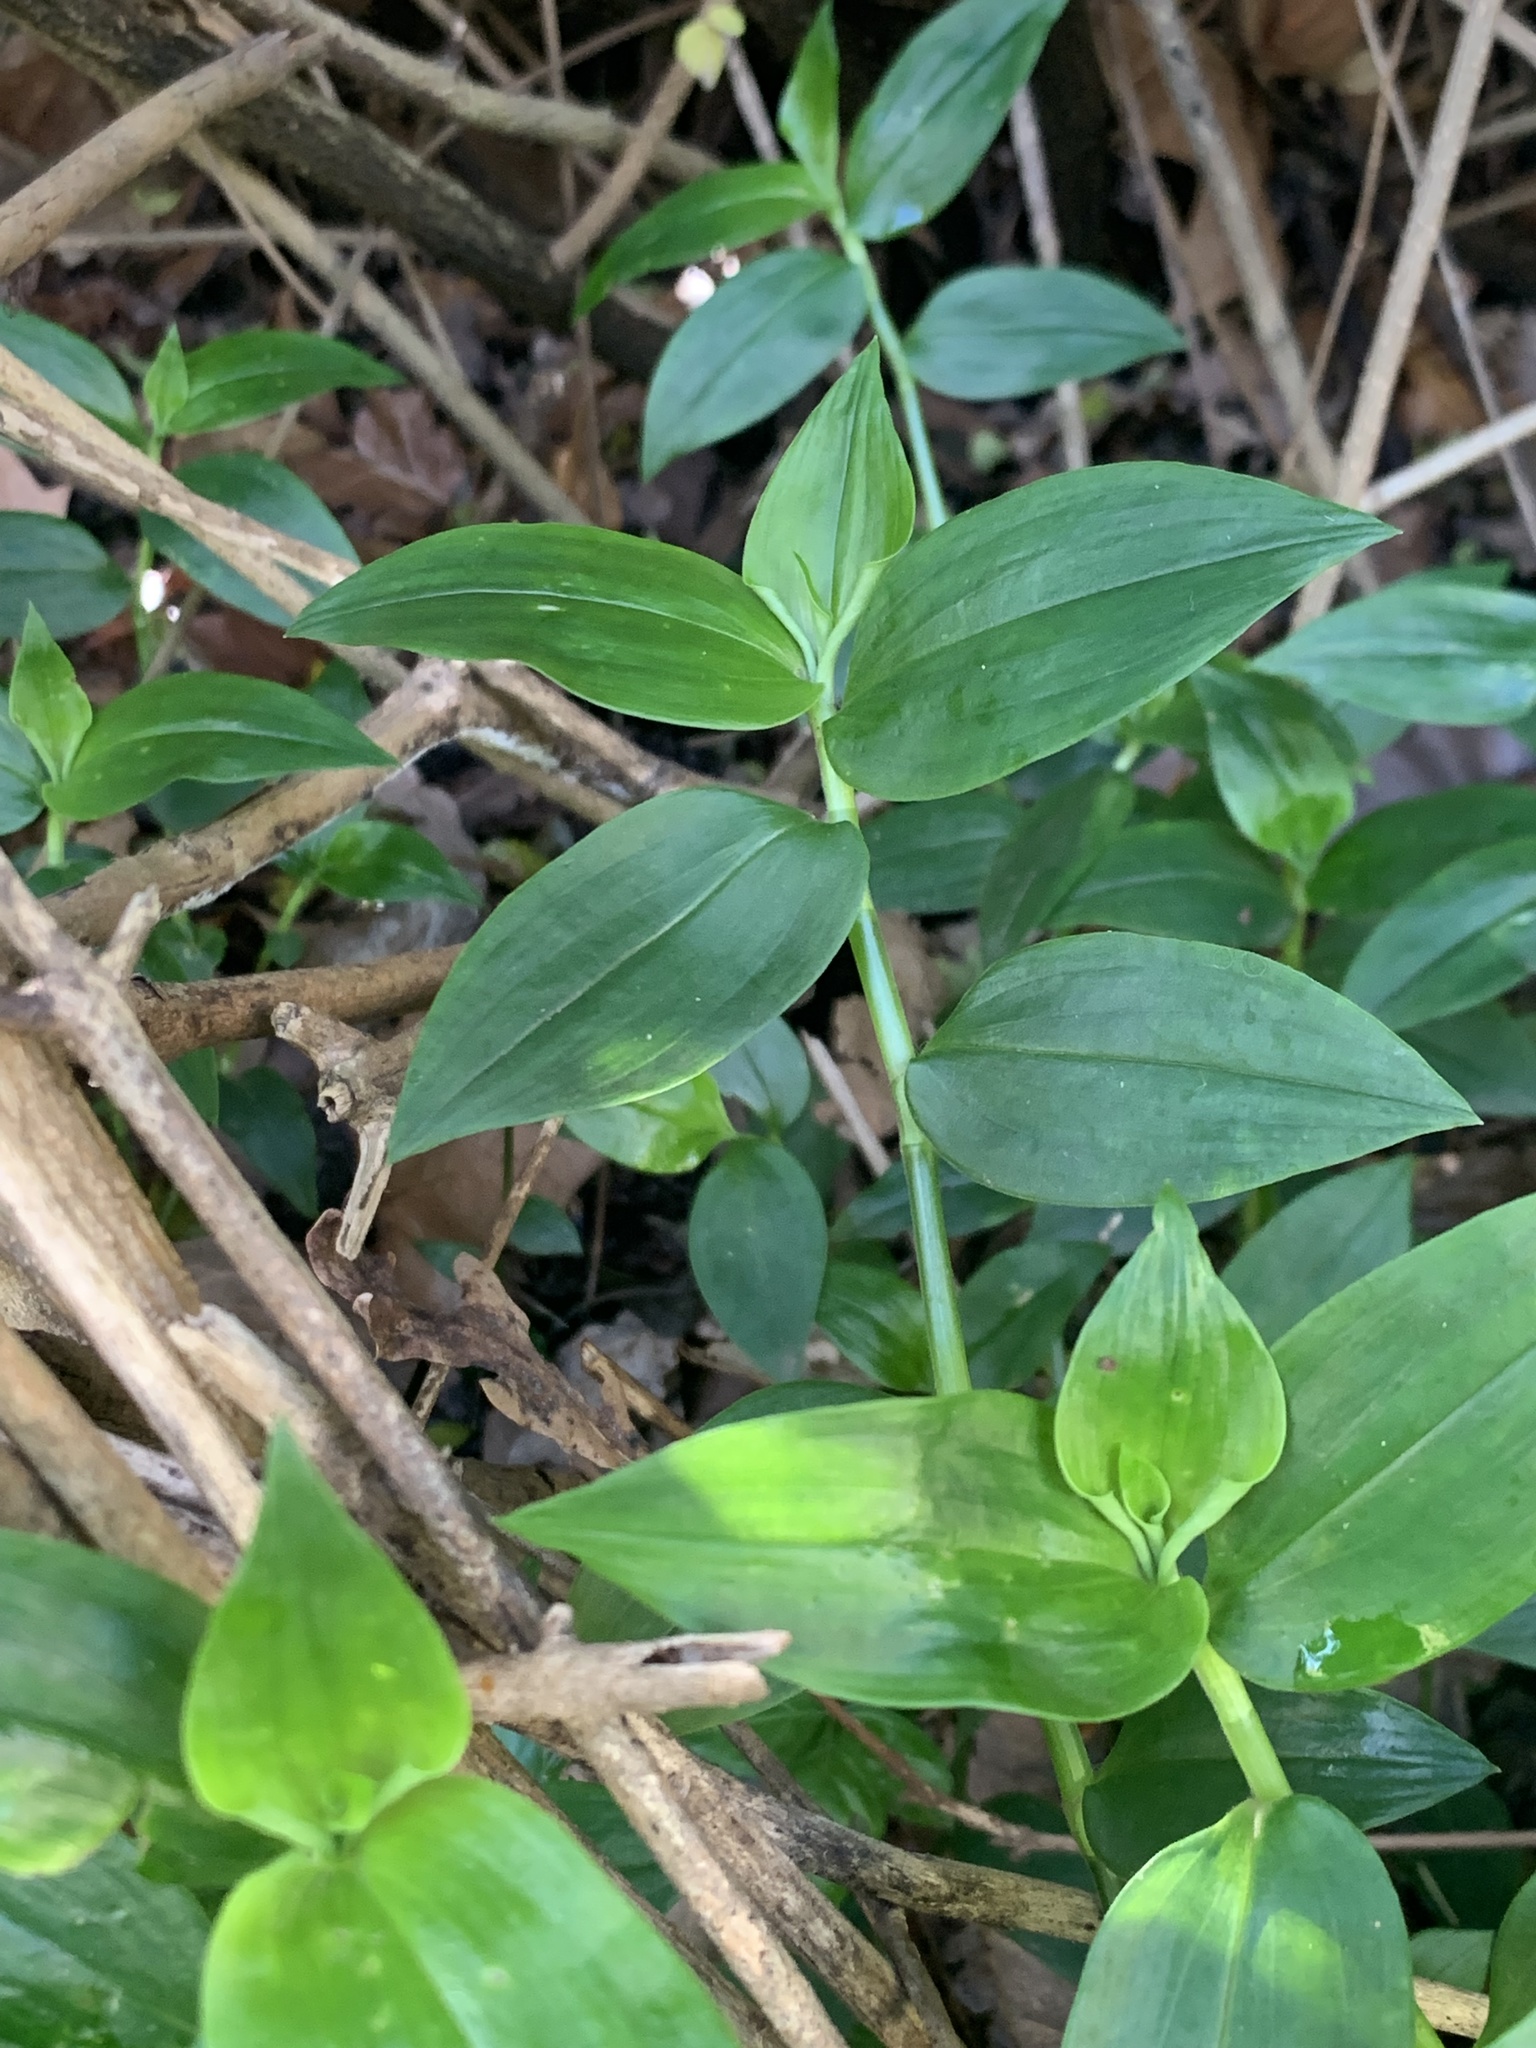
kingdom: Plantae
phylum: Tracheophyta
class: Liliopsida
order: Commelinales
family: Commelinaceae
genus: Tradescantia
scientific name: Tradescantia fluminensis
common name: Wandering-jew
